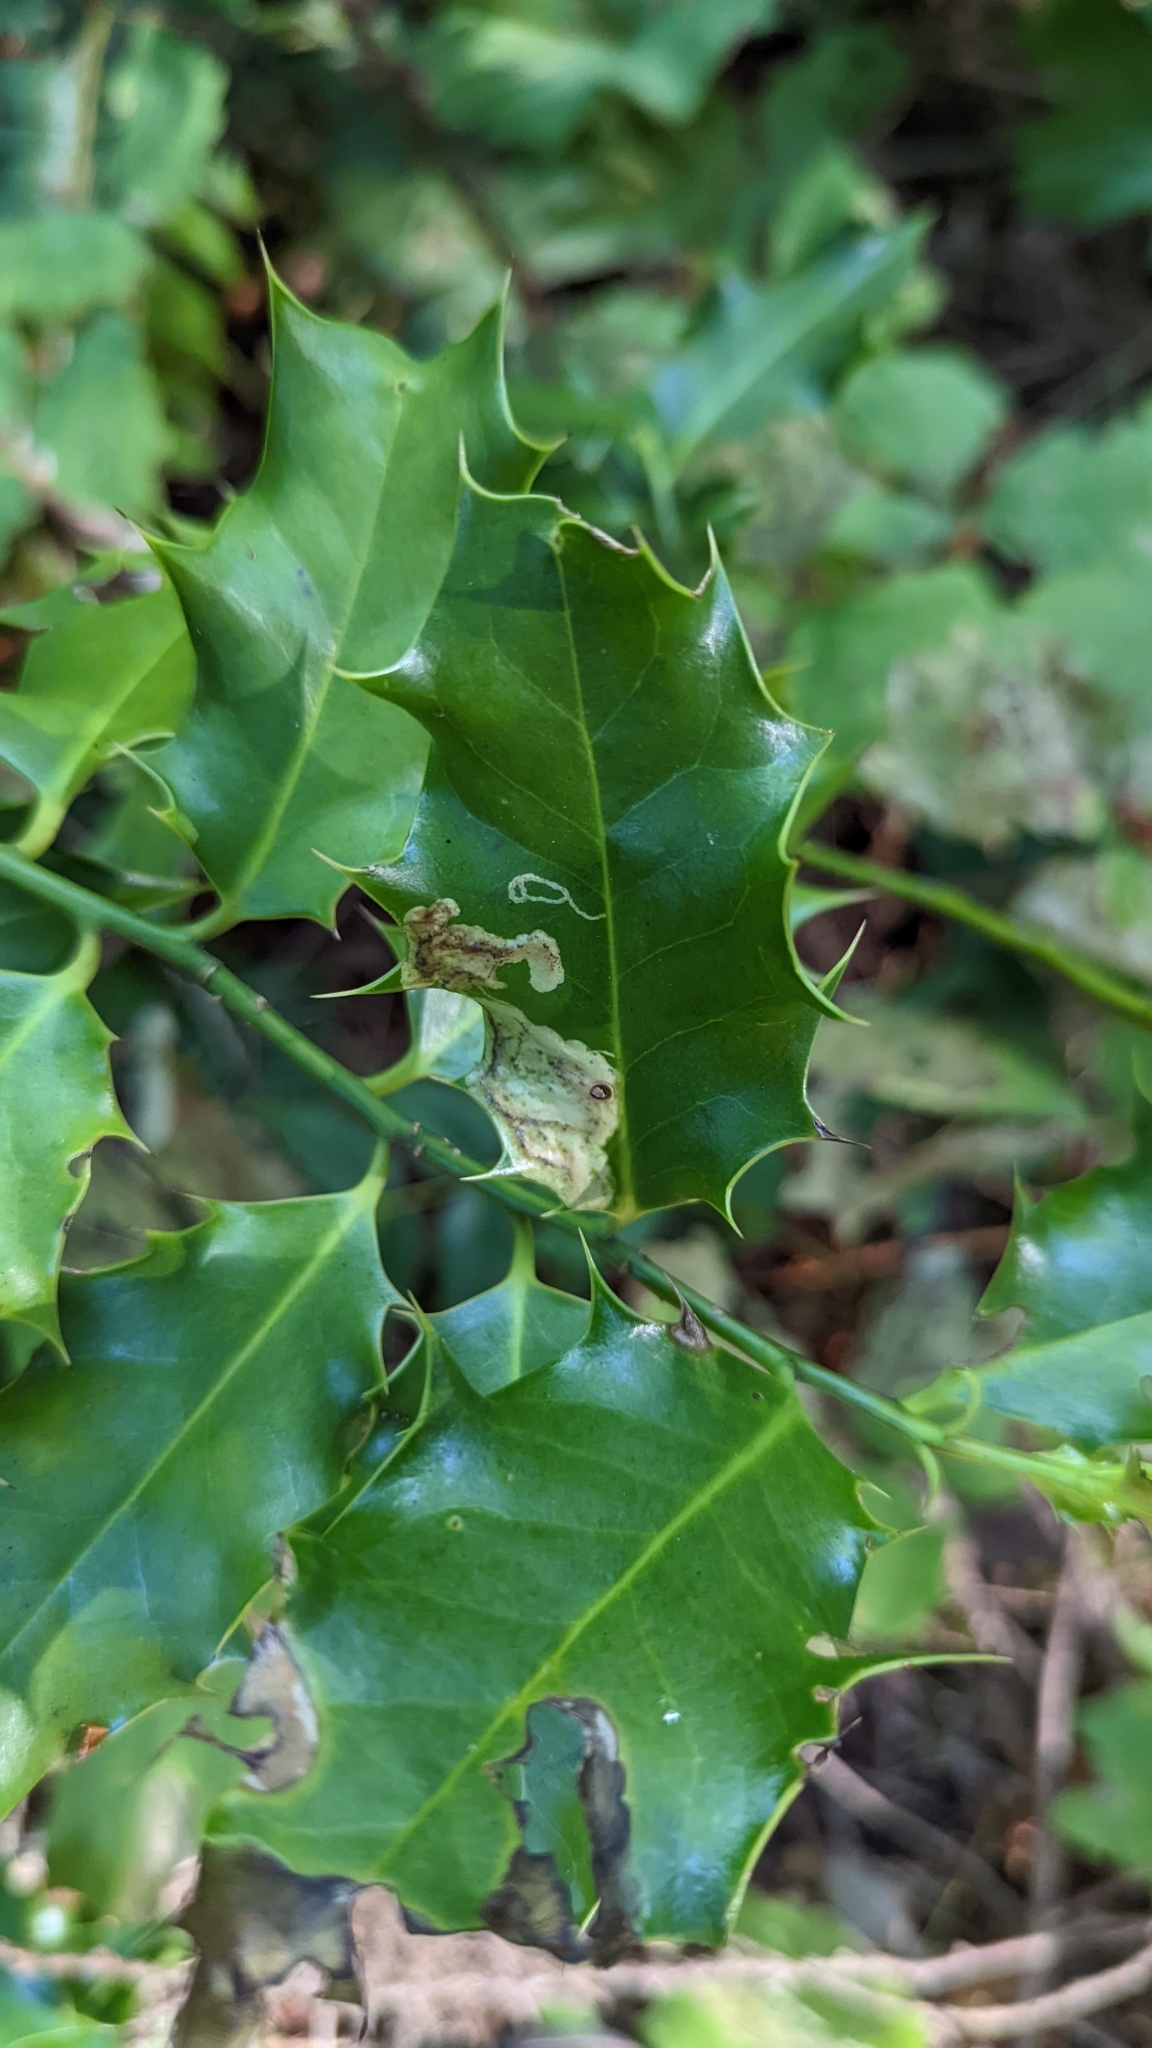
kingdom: Animalia
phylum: Arthropoda
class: Insecta
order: Diptera
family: Agromyzidae
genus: Phytomyza
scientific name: Phytomyza ilicis
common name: Holly leafminer
